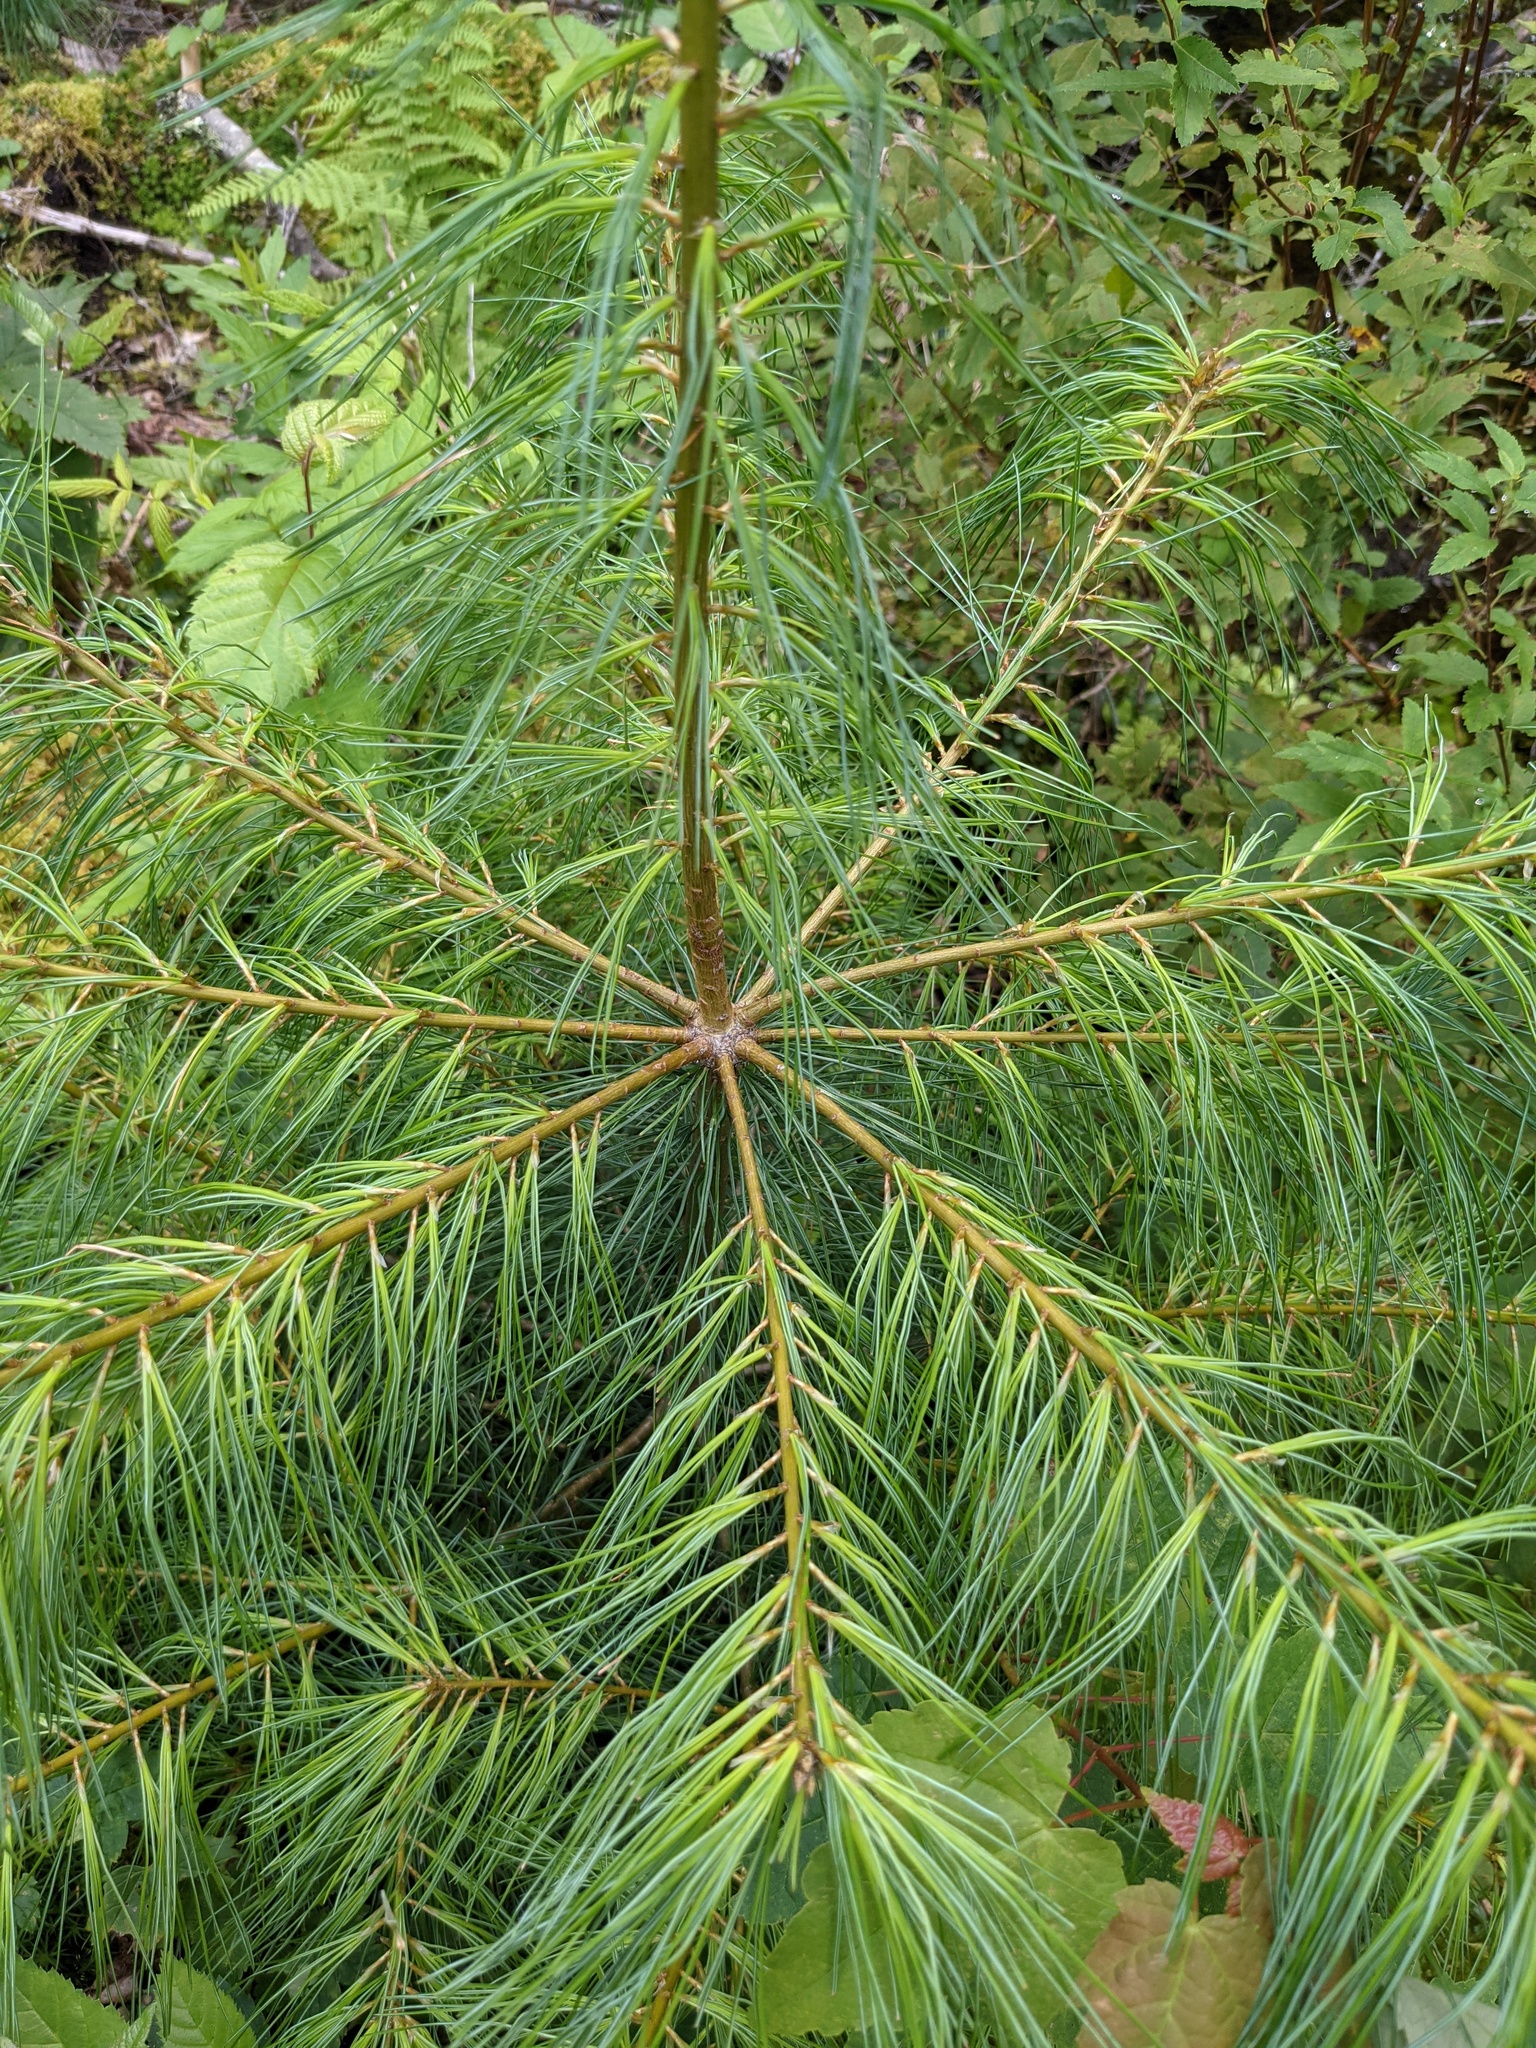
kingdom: Plantae
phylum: Tracheophyta
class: Pinopsida
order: Pinales
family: Pinaceae
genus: Pinus
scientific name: Pinus strobus
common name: Weymouth pine
